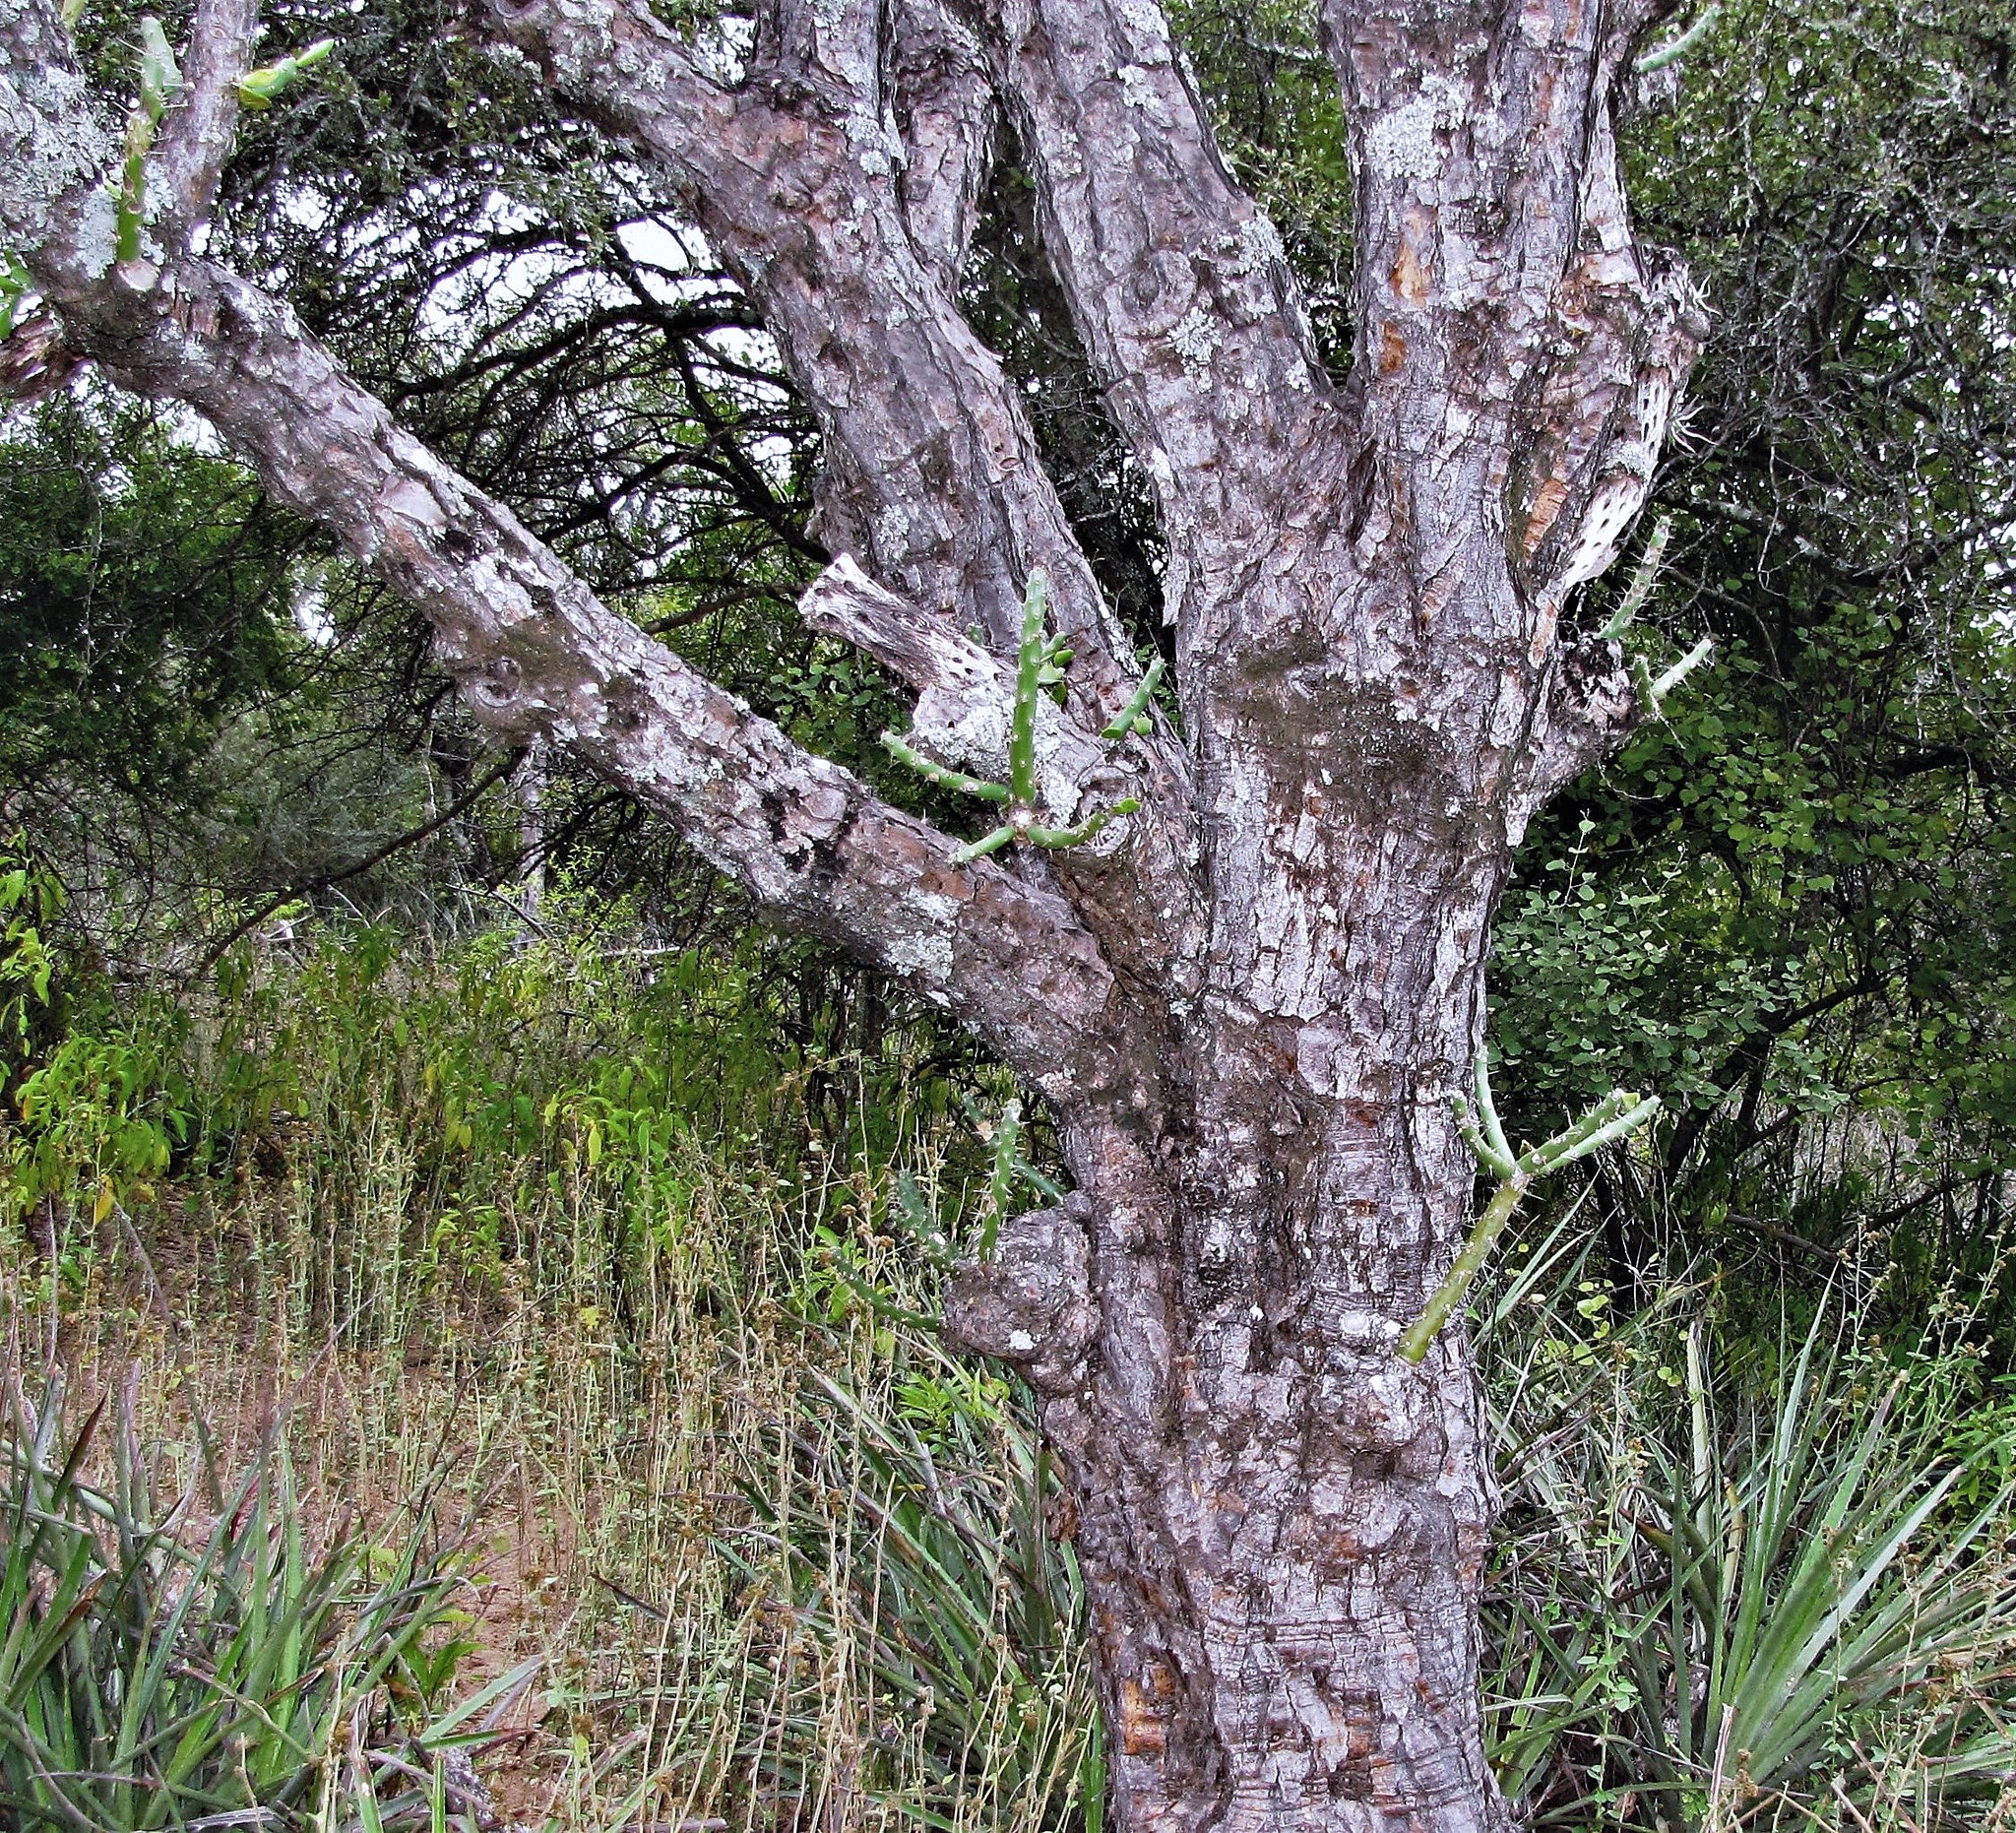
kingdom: Plantae
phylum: Tracheophyta
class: Magnoliopsida
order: Caryophyllales
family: Cactaceae
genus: Quiabentia
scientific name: Quiabentia verticillata
